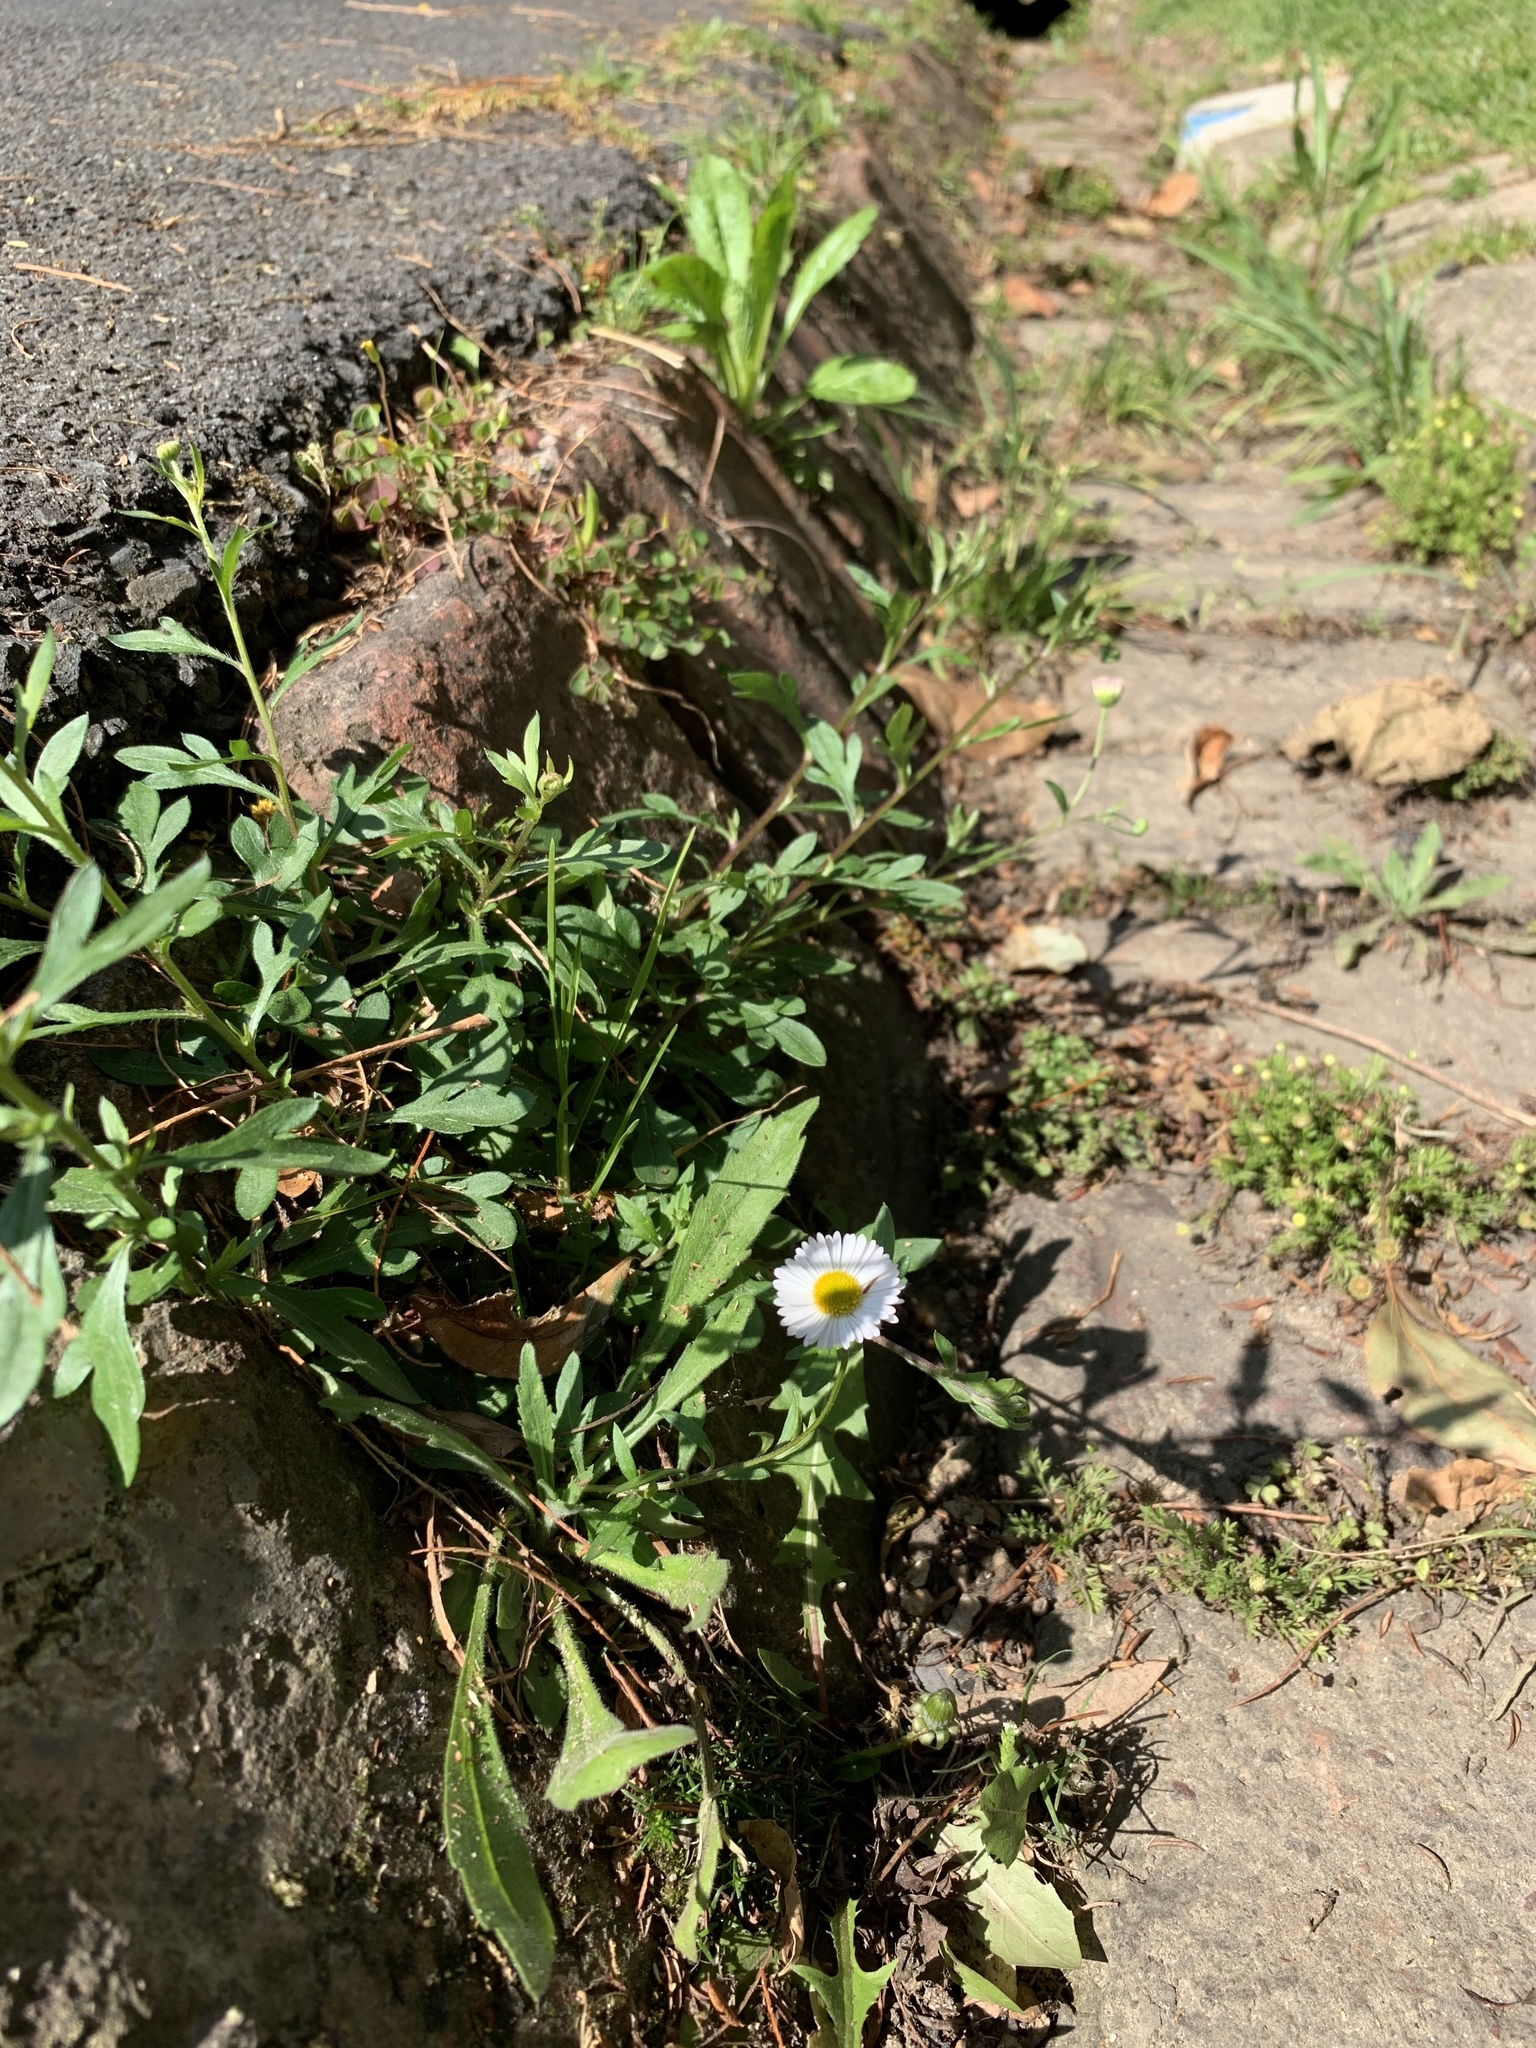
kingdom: Plantae
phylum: Tracheophyta
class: Magnoliopsida
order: Asterales
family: Asteraceae
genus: Erigeron
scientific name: Erigeron karvinskianus
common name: Mexican fleabane
